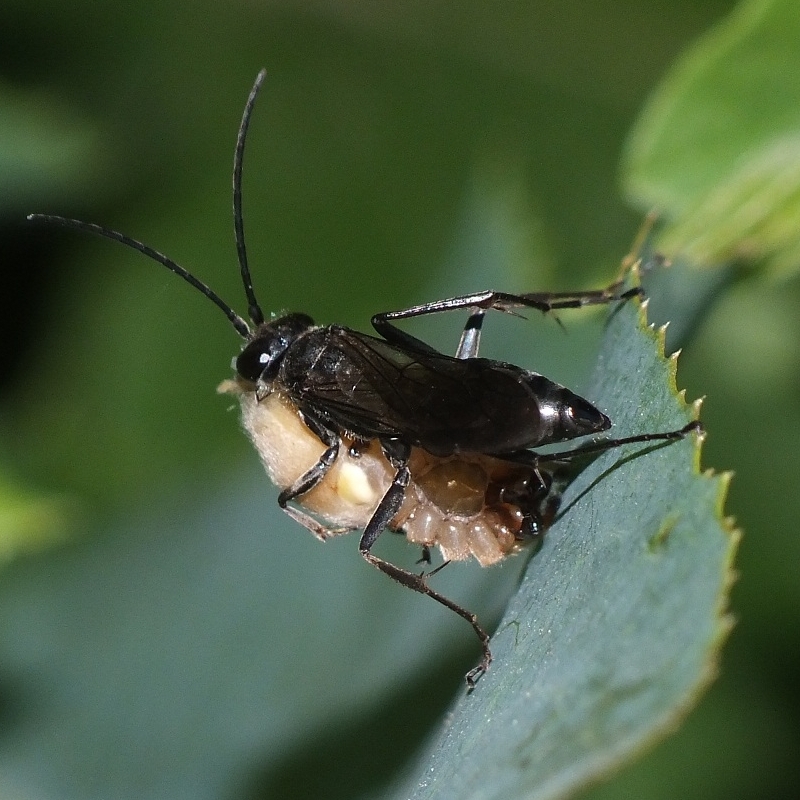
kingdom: Animalia
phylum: Arthropoda
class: Insecta
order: Hymenoptera
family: Pompilidae
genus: Auplopus
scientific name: Auplopus carbonarius
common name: Spider wasp
